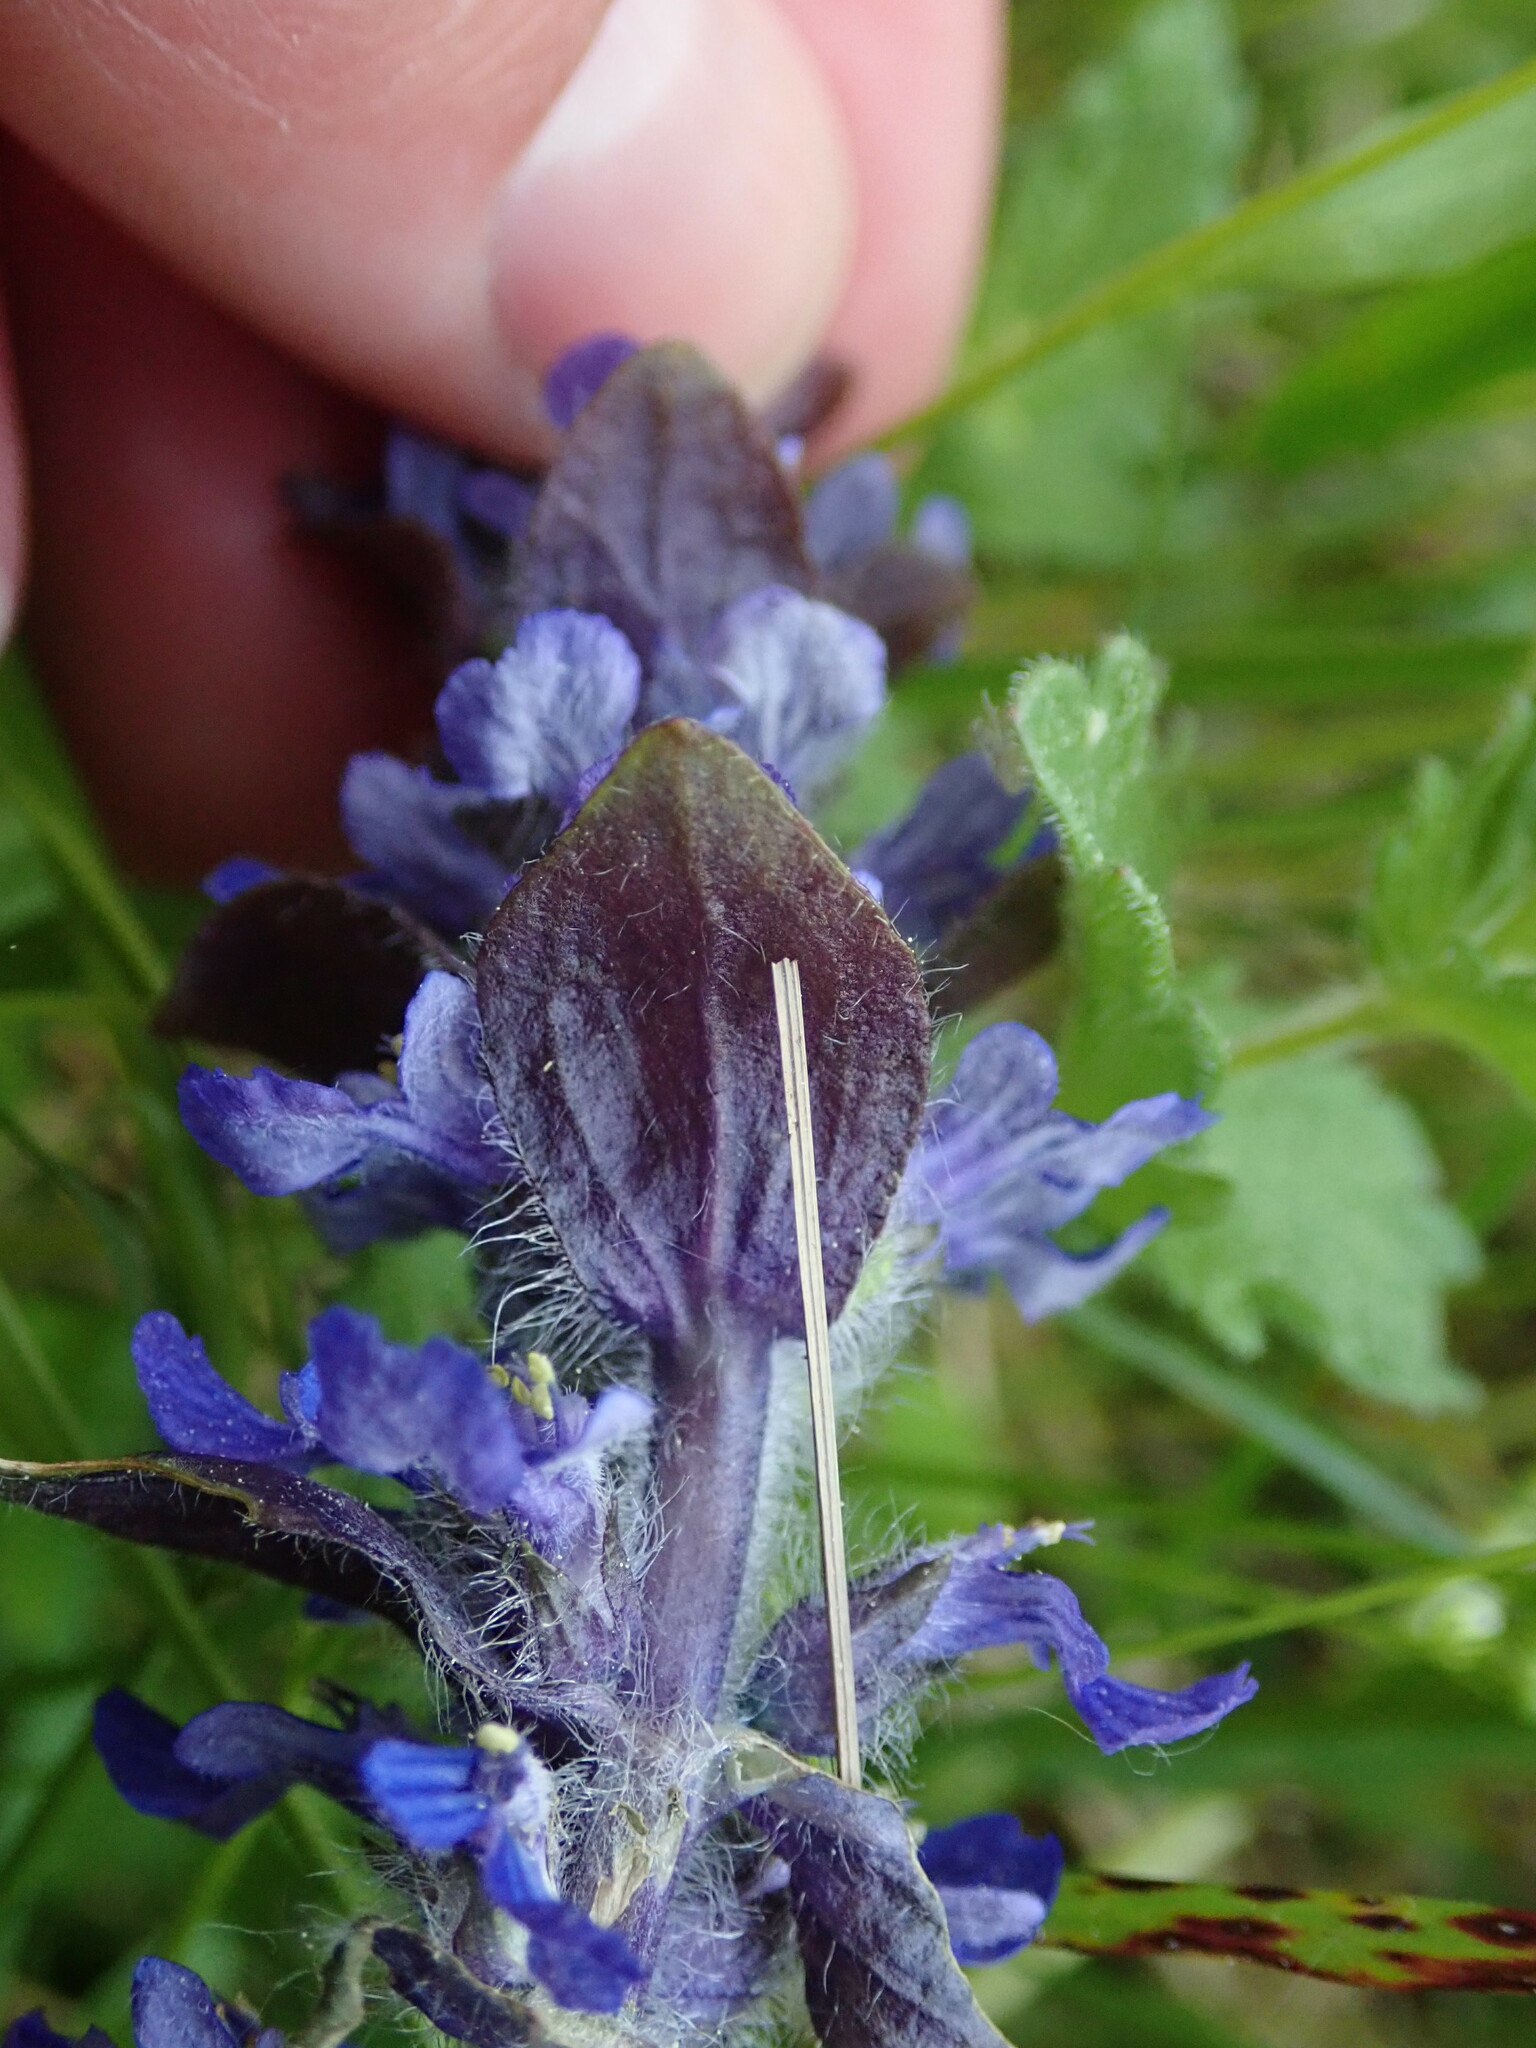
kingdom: Plantae
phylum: Tracheophyta
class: Magnoliopsida
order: Lamiales
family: Lamiaceae
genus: Ajuga
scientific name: Ajuga reptans
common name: Bugle
